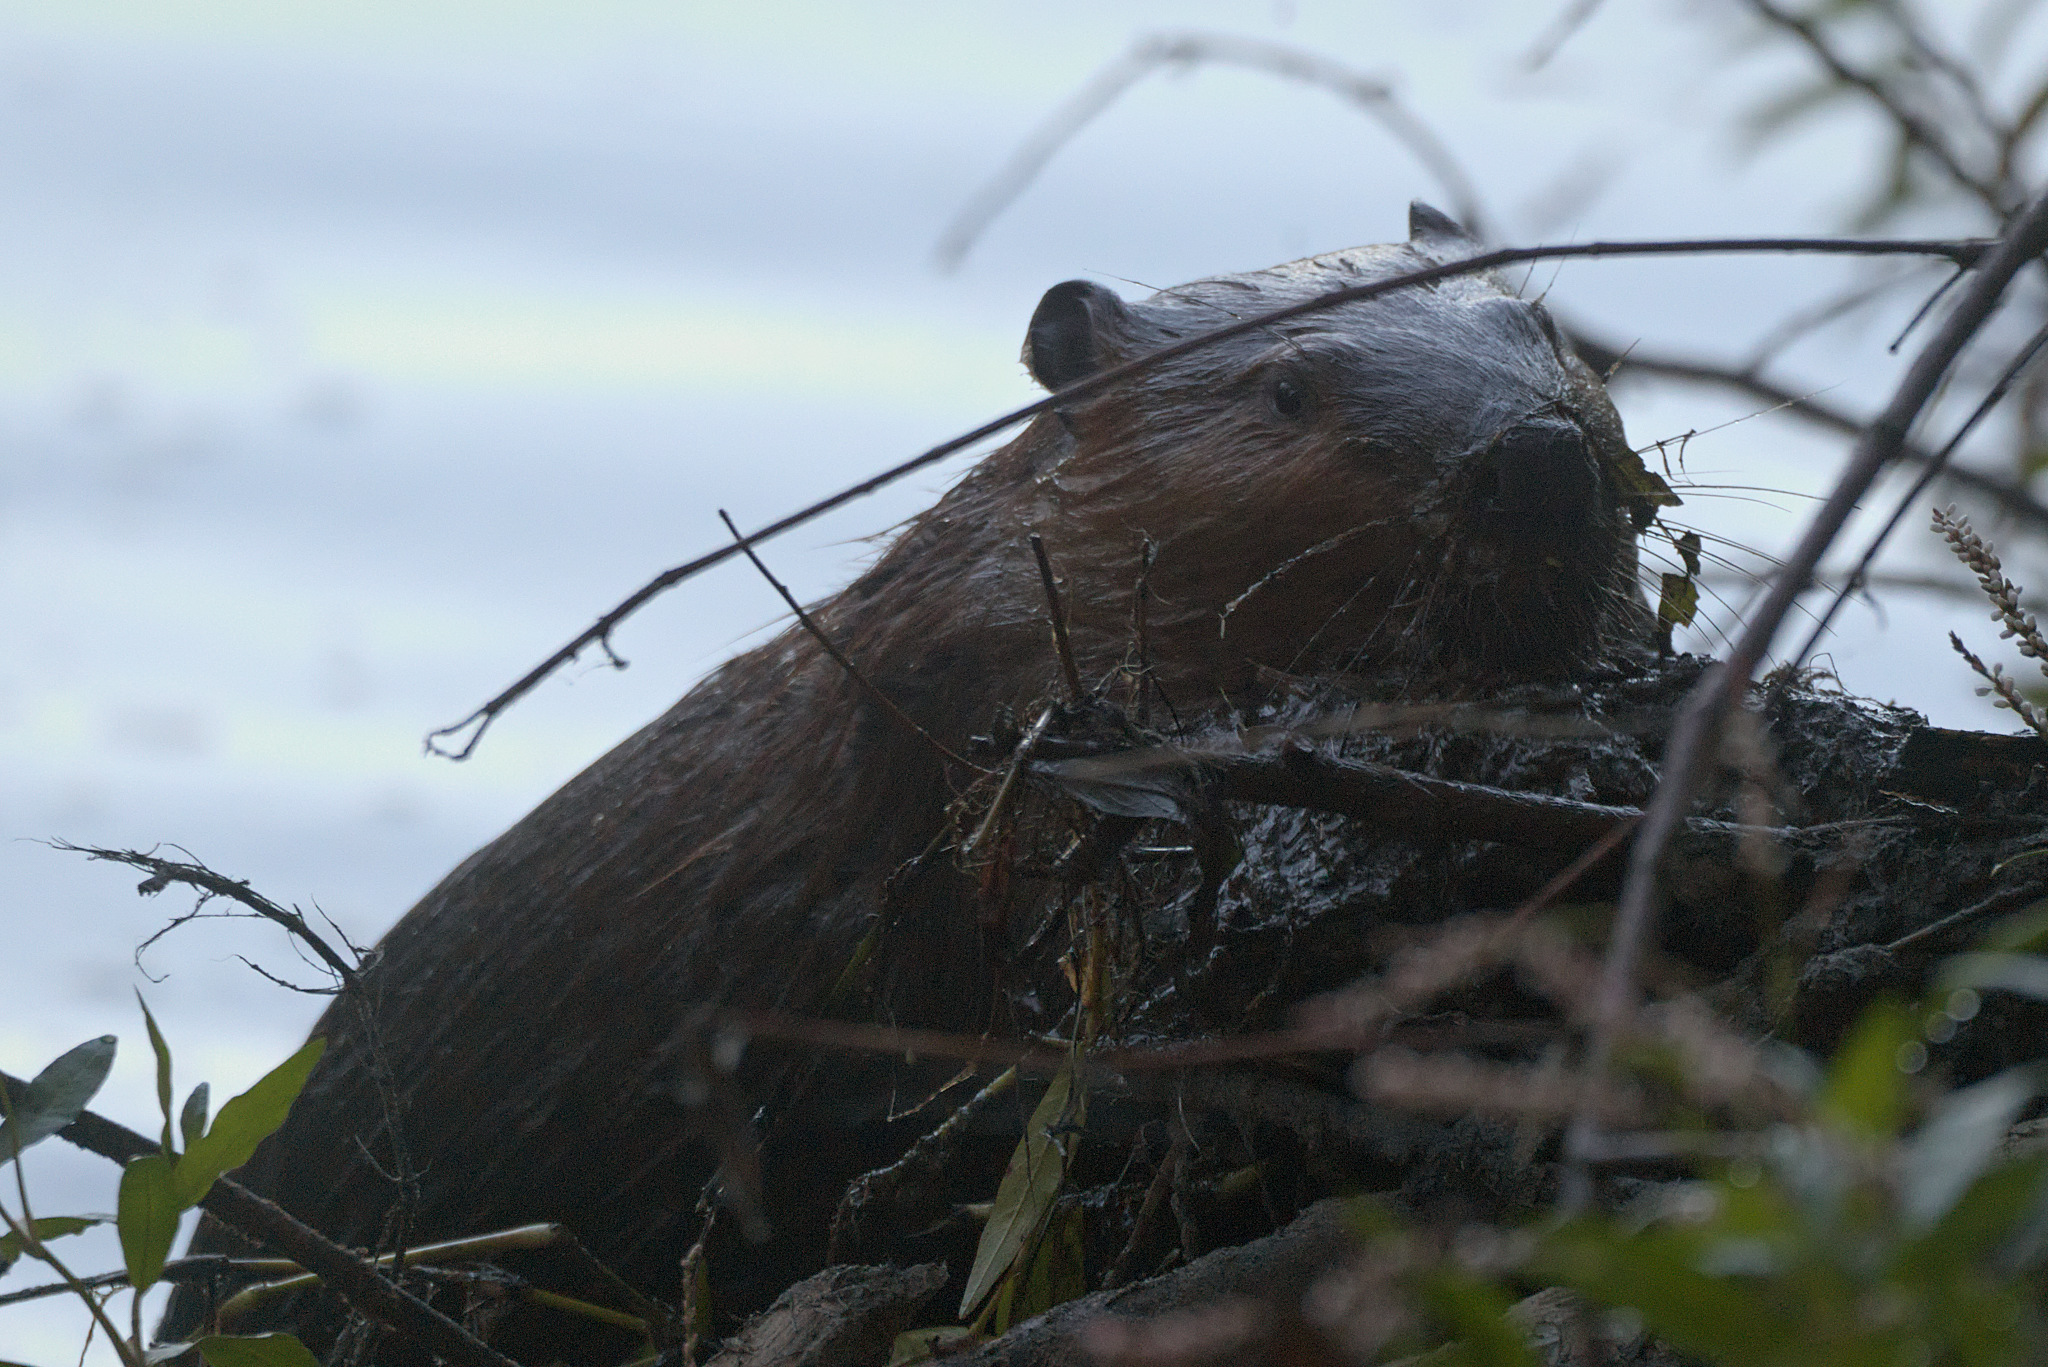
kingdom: Animalia
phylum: Chordata
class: Mammalia
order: Rodentia
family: Castoridae
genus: Castor
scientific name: Castor canadensis
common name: American beaver
